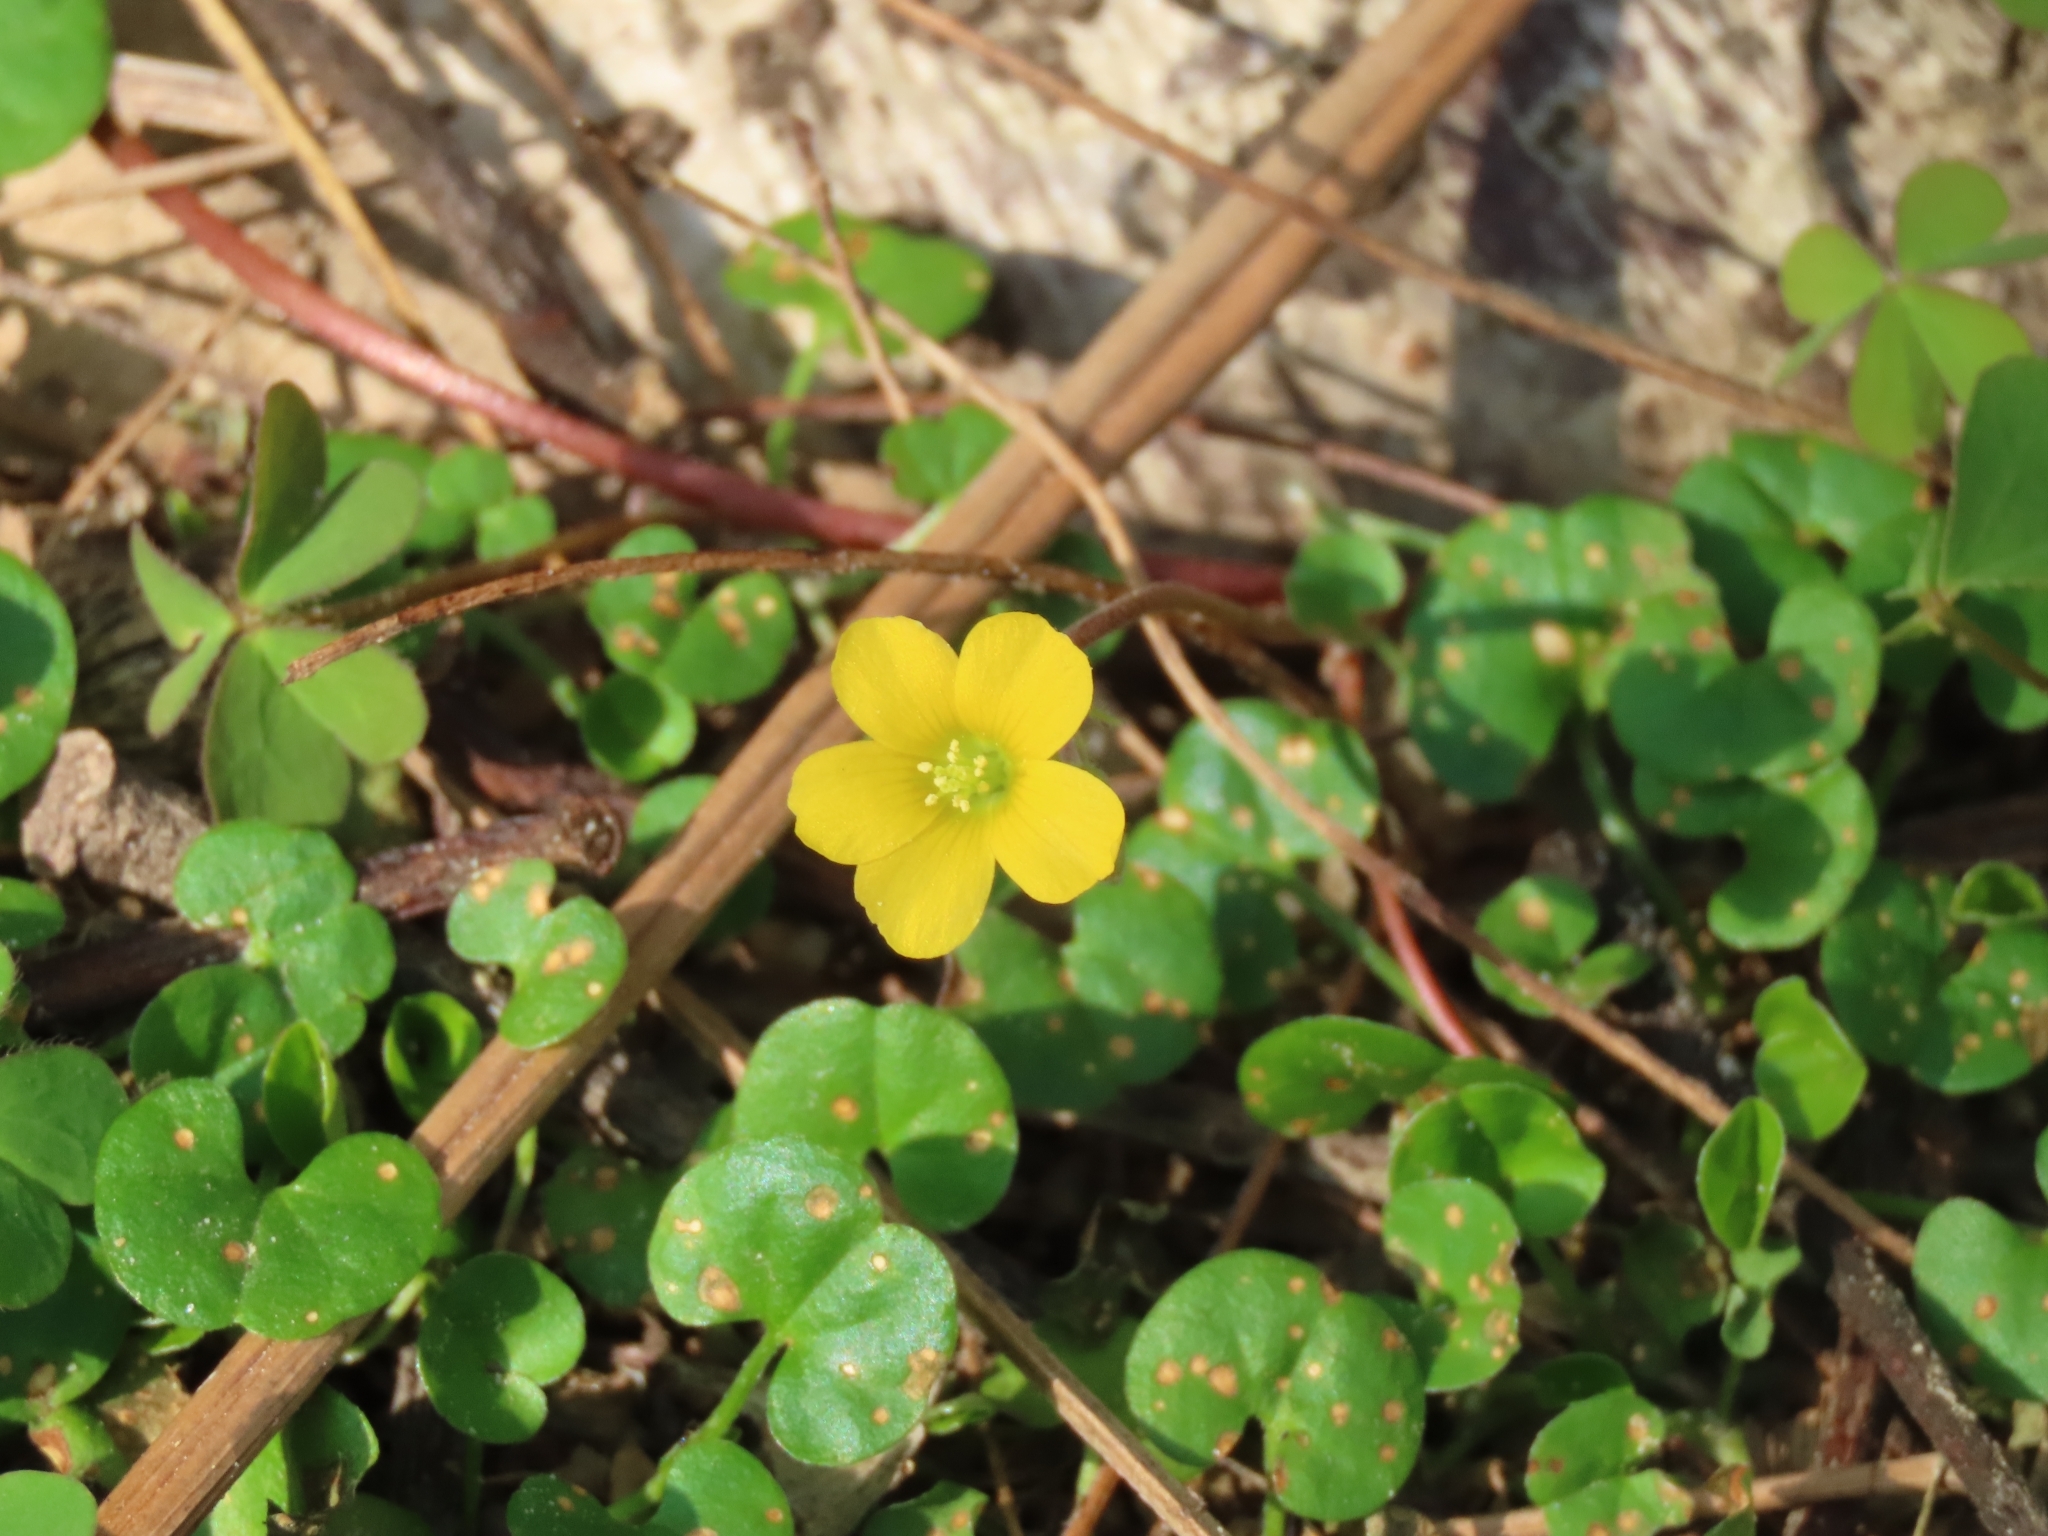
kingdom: Plantae
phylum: Tracheophyta
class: Magnoliopsida
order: Oxalidales
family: Oxalidaceae
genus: Oxalis
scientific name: Oxalis corniculata
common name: Procumbent yellow-sorrel
